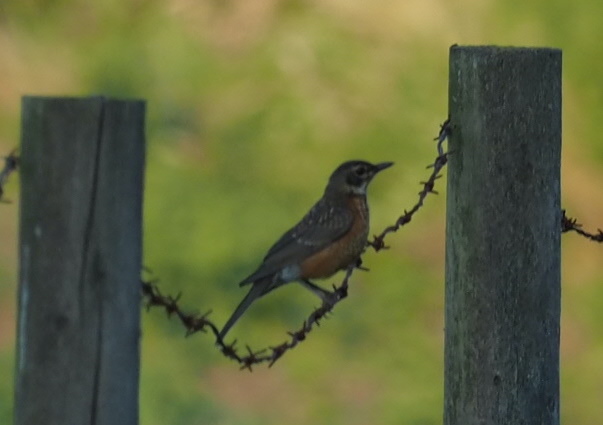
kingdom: Animalia
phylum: Chordata
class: Aves
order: Passeriformes
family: Turdidae
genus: Turdus
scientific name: Turdus migratorius
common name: American robin
